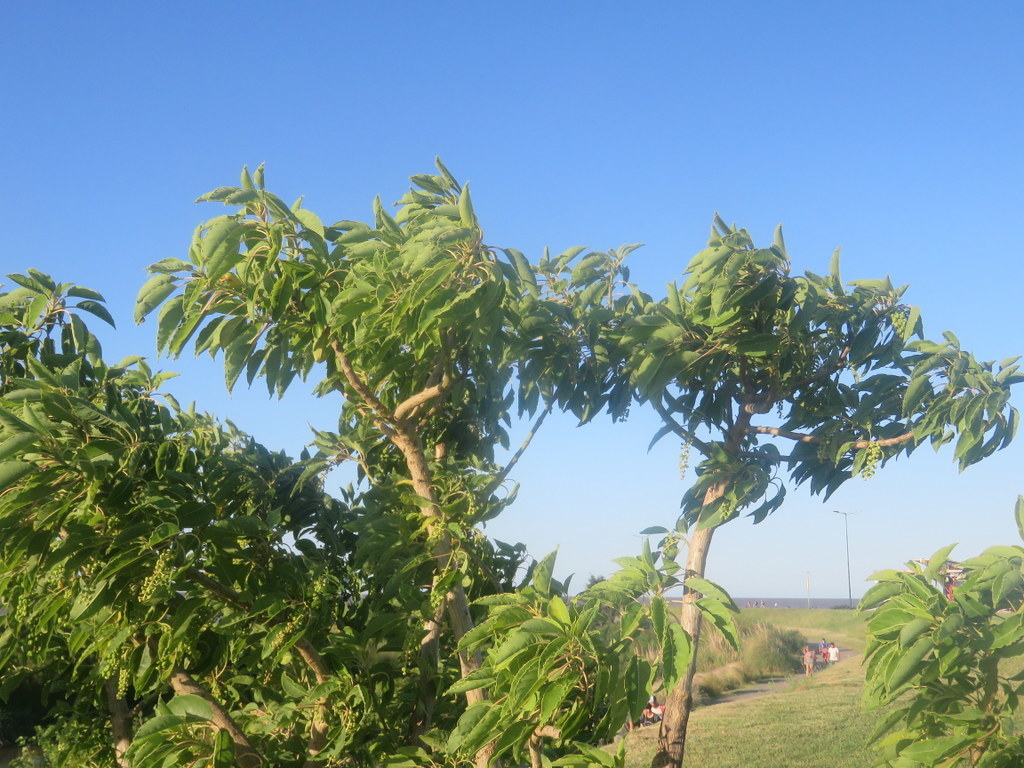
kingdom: Plantae
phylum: Tracheophyta
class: Magnoliopsida
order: Caryophyllales
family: Phytolaccaceae
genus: Phytolacca
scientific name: Phytolacca dioica
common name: Pokeweed
